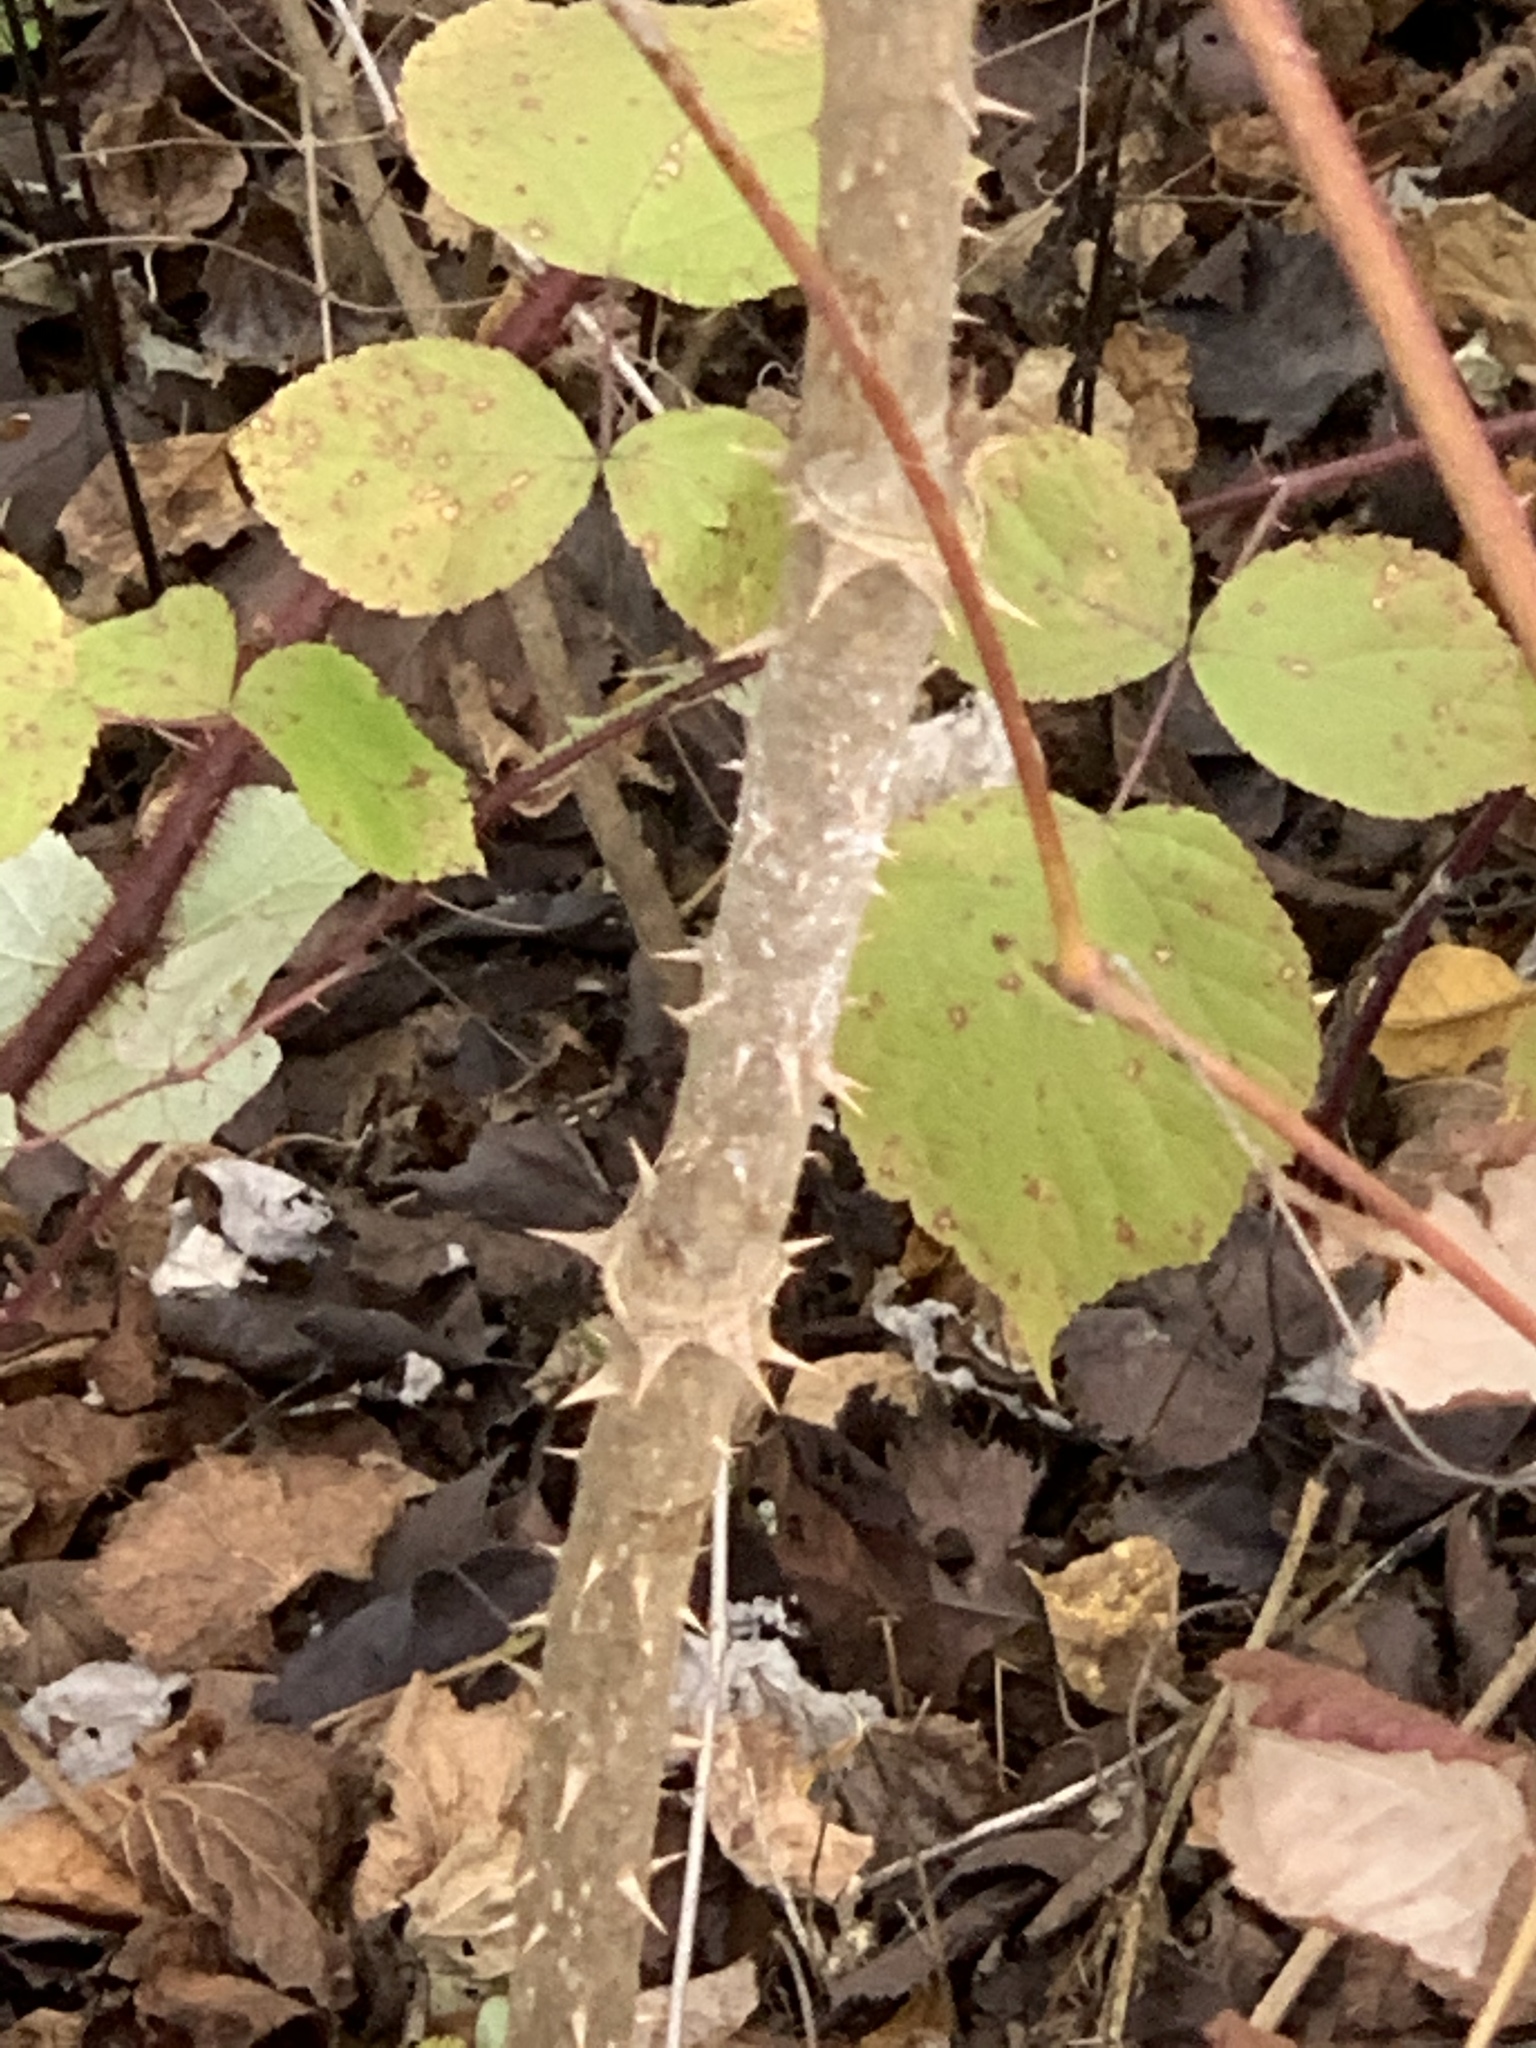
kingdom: Plantae
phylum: Tracheophyta
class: Magnoliopsida
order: Apiales
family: Araliaceae
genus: Aralia
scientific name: Aralia elata
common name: Japanese angelica-tree
